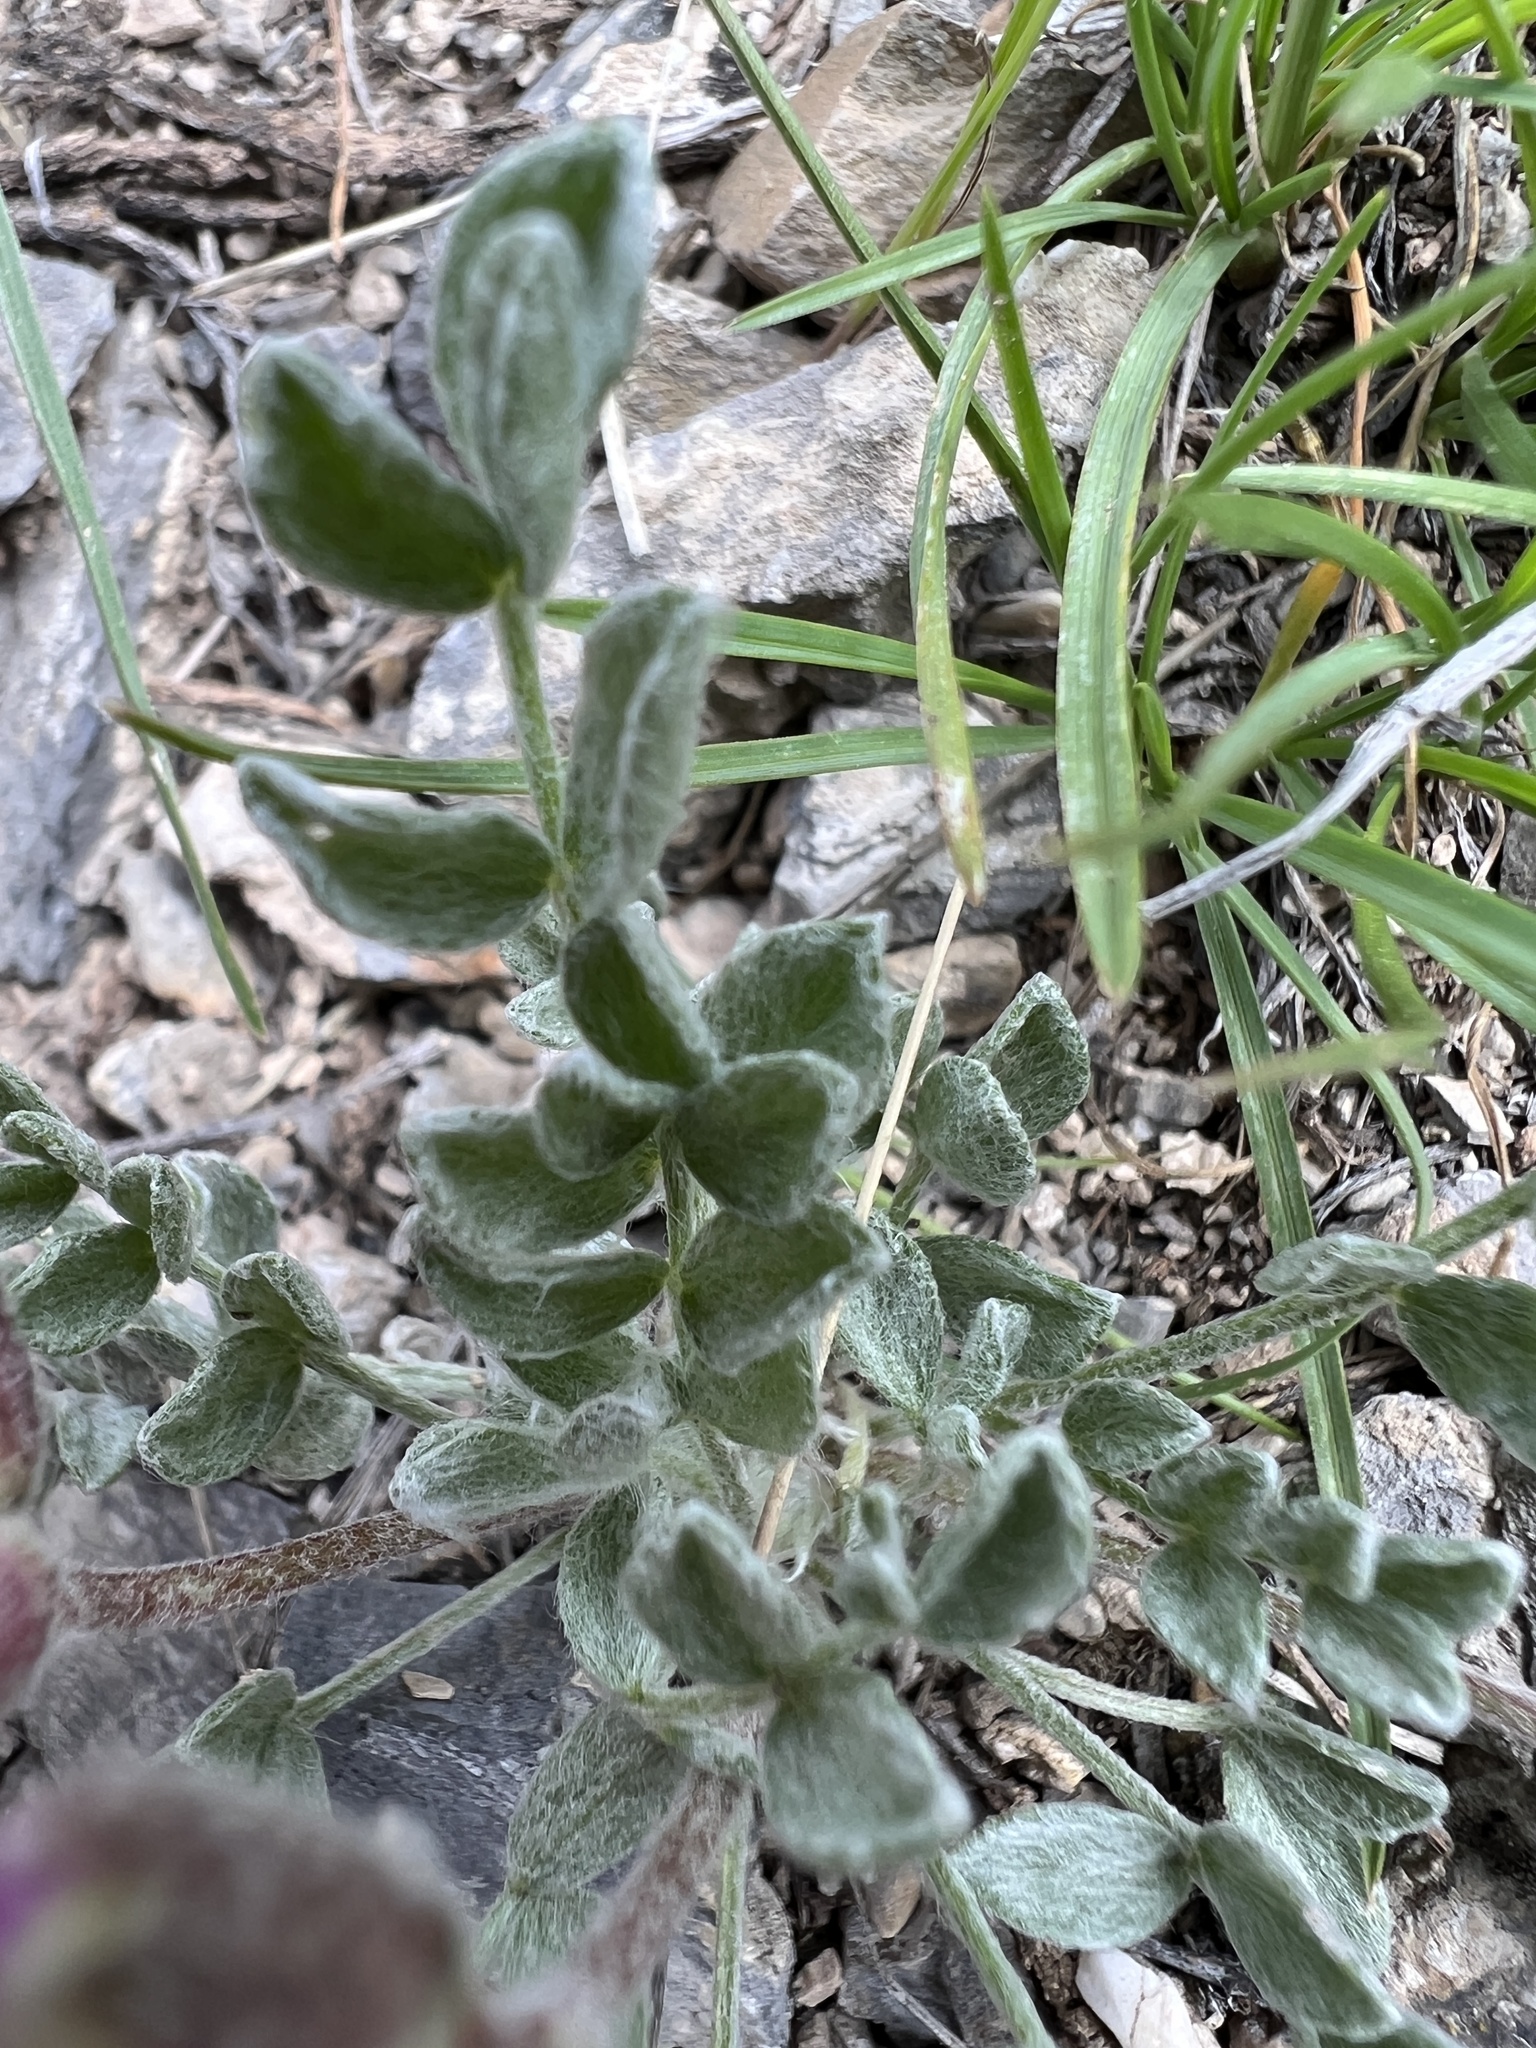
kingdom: Plantae
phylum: Tracheophyta
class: Magnoliopsida
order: Fabales
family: Fabaceae
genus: Astragalus
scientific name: Astragalus utahensis
